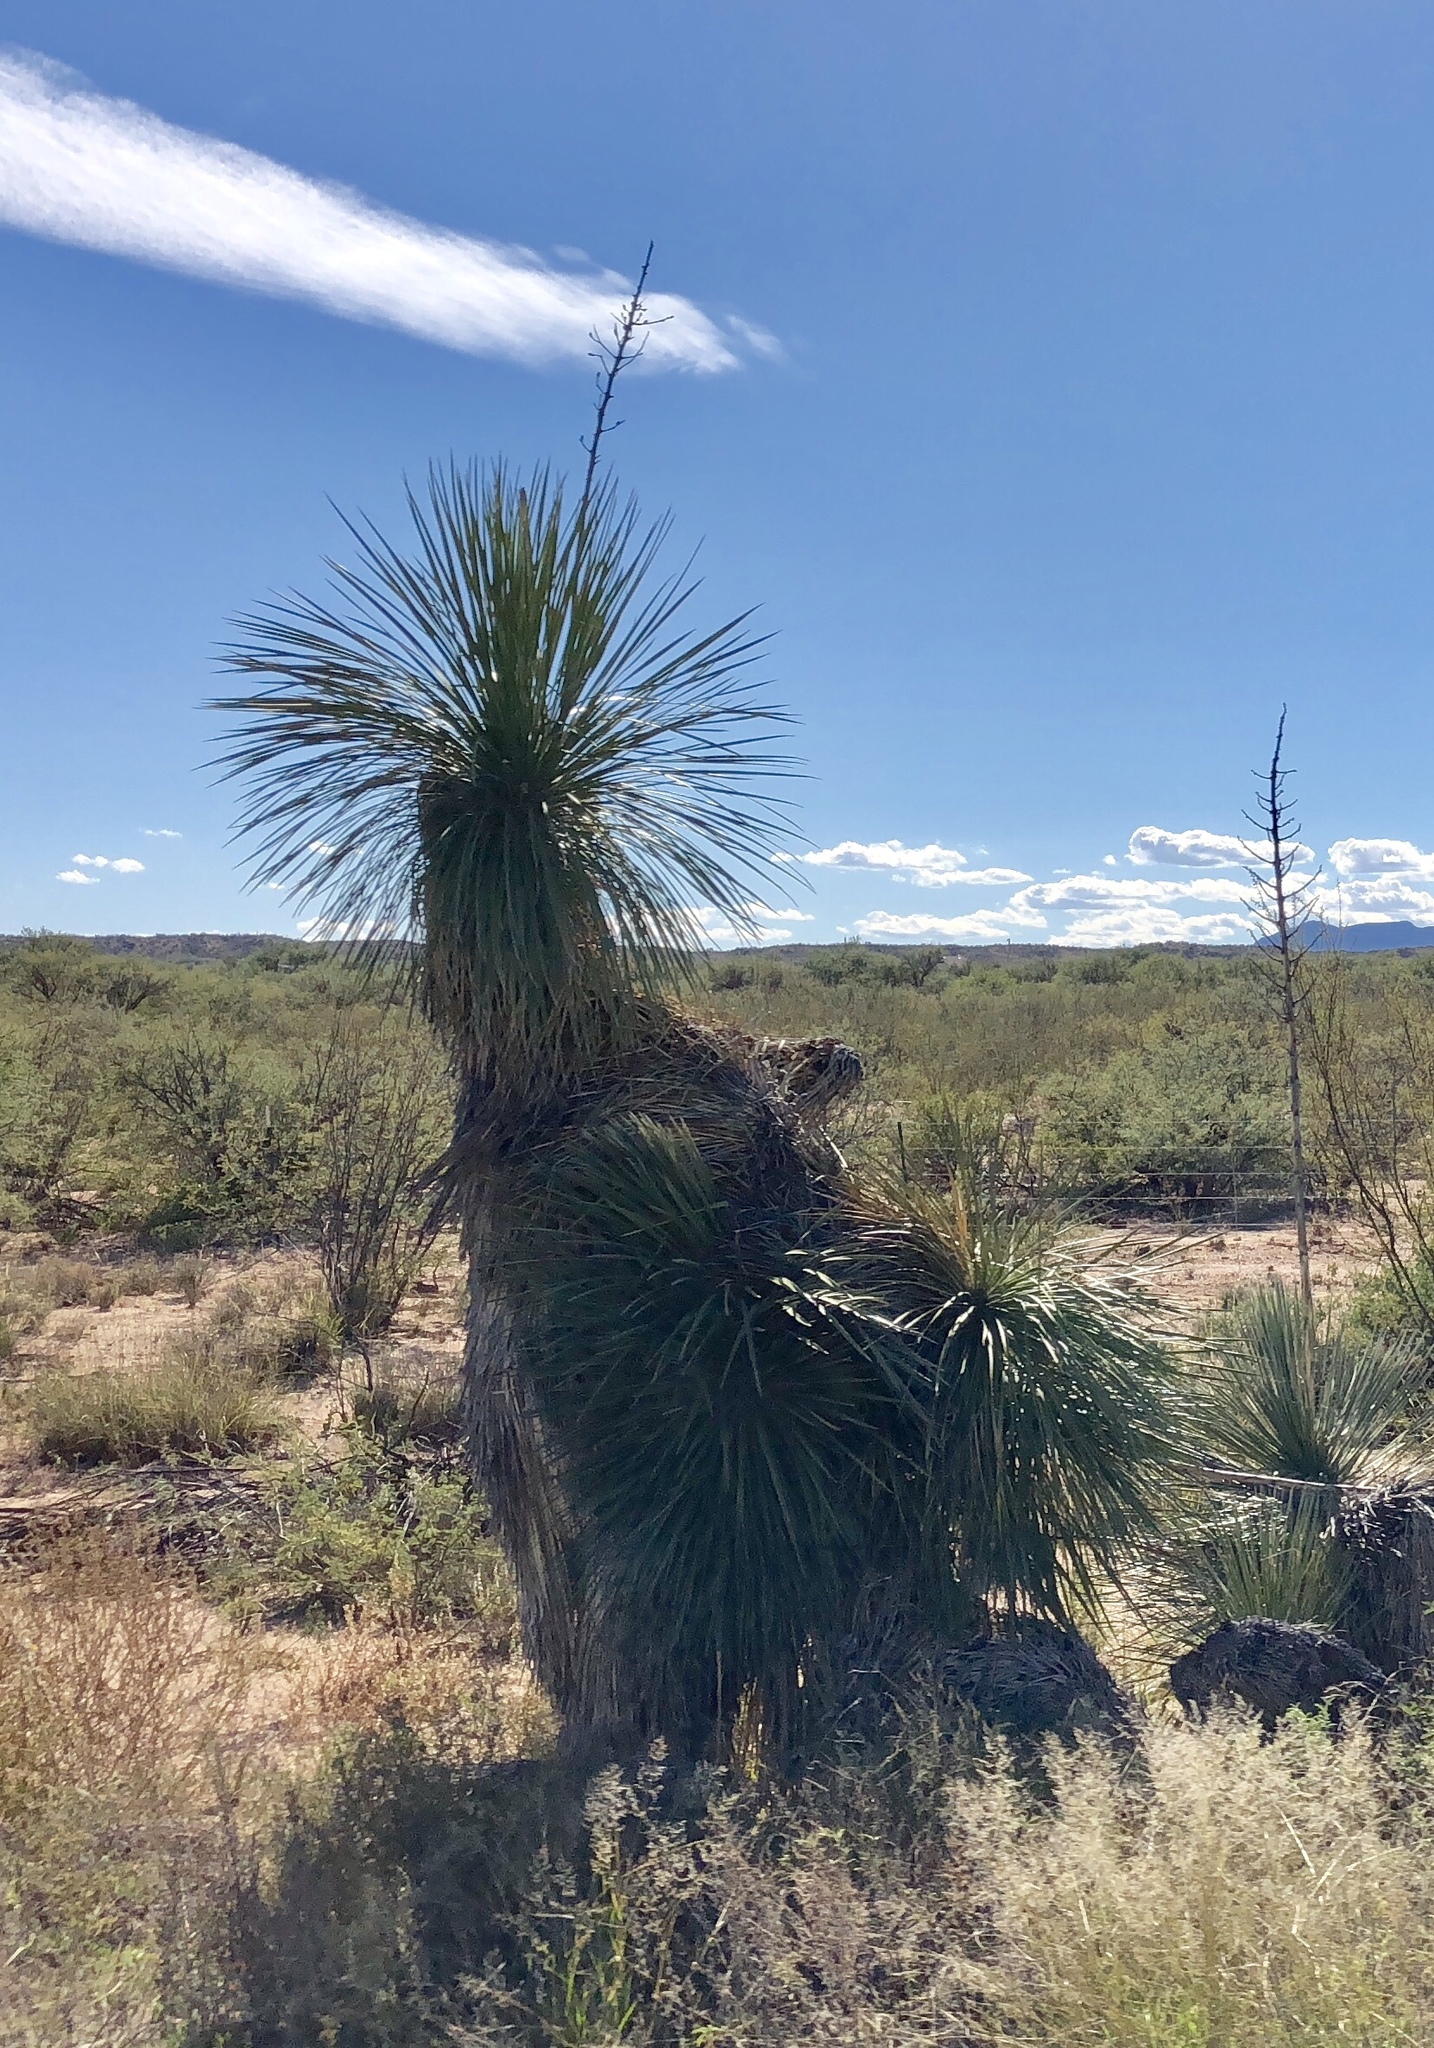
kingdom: Plantae
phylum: Tracheophyta
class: Liliopsida
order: Asparagales
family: Asparagaceae
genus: Yucca
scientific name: Yucca elata
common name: Palmella
